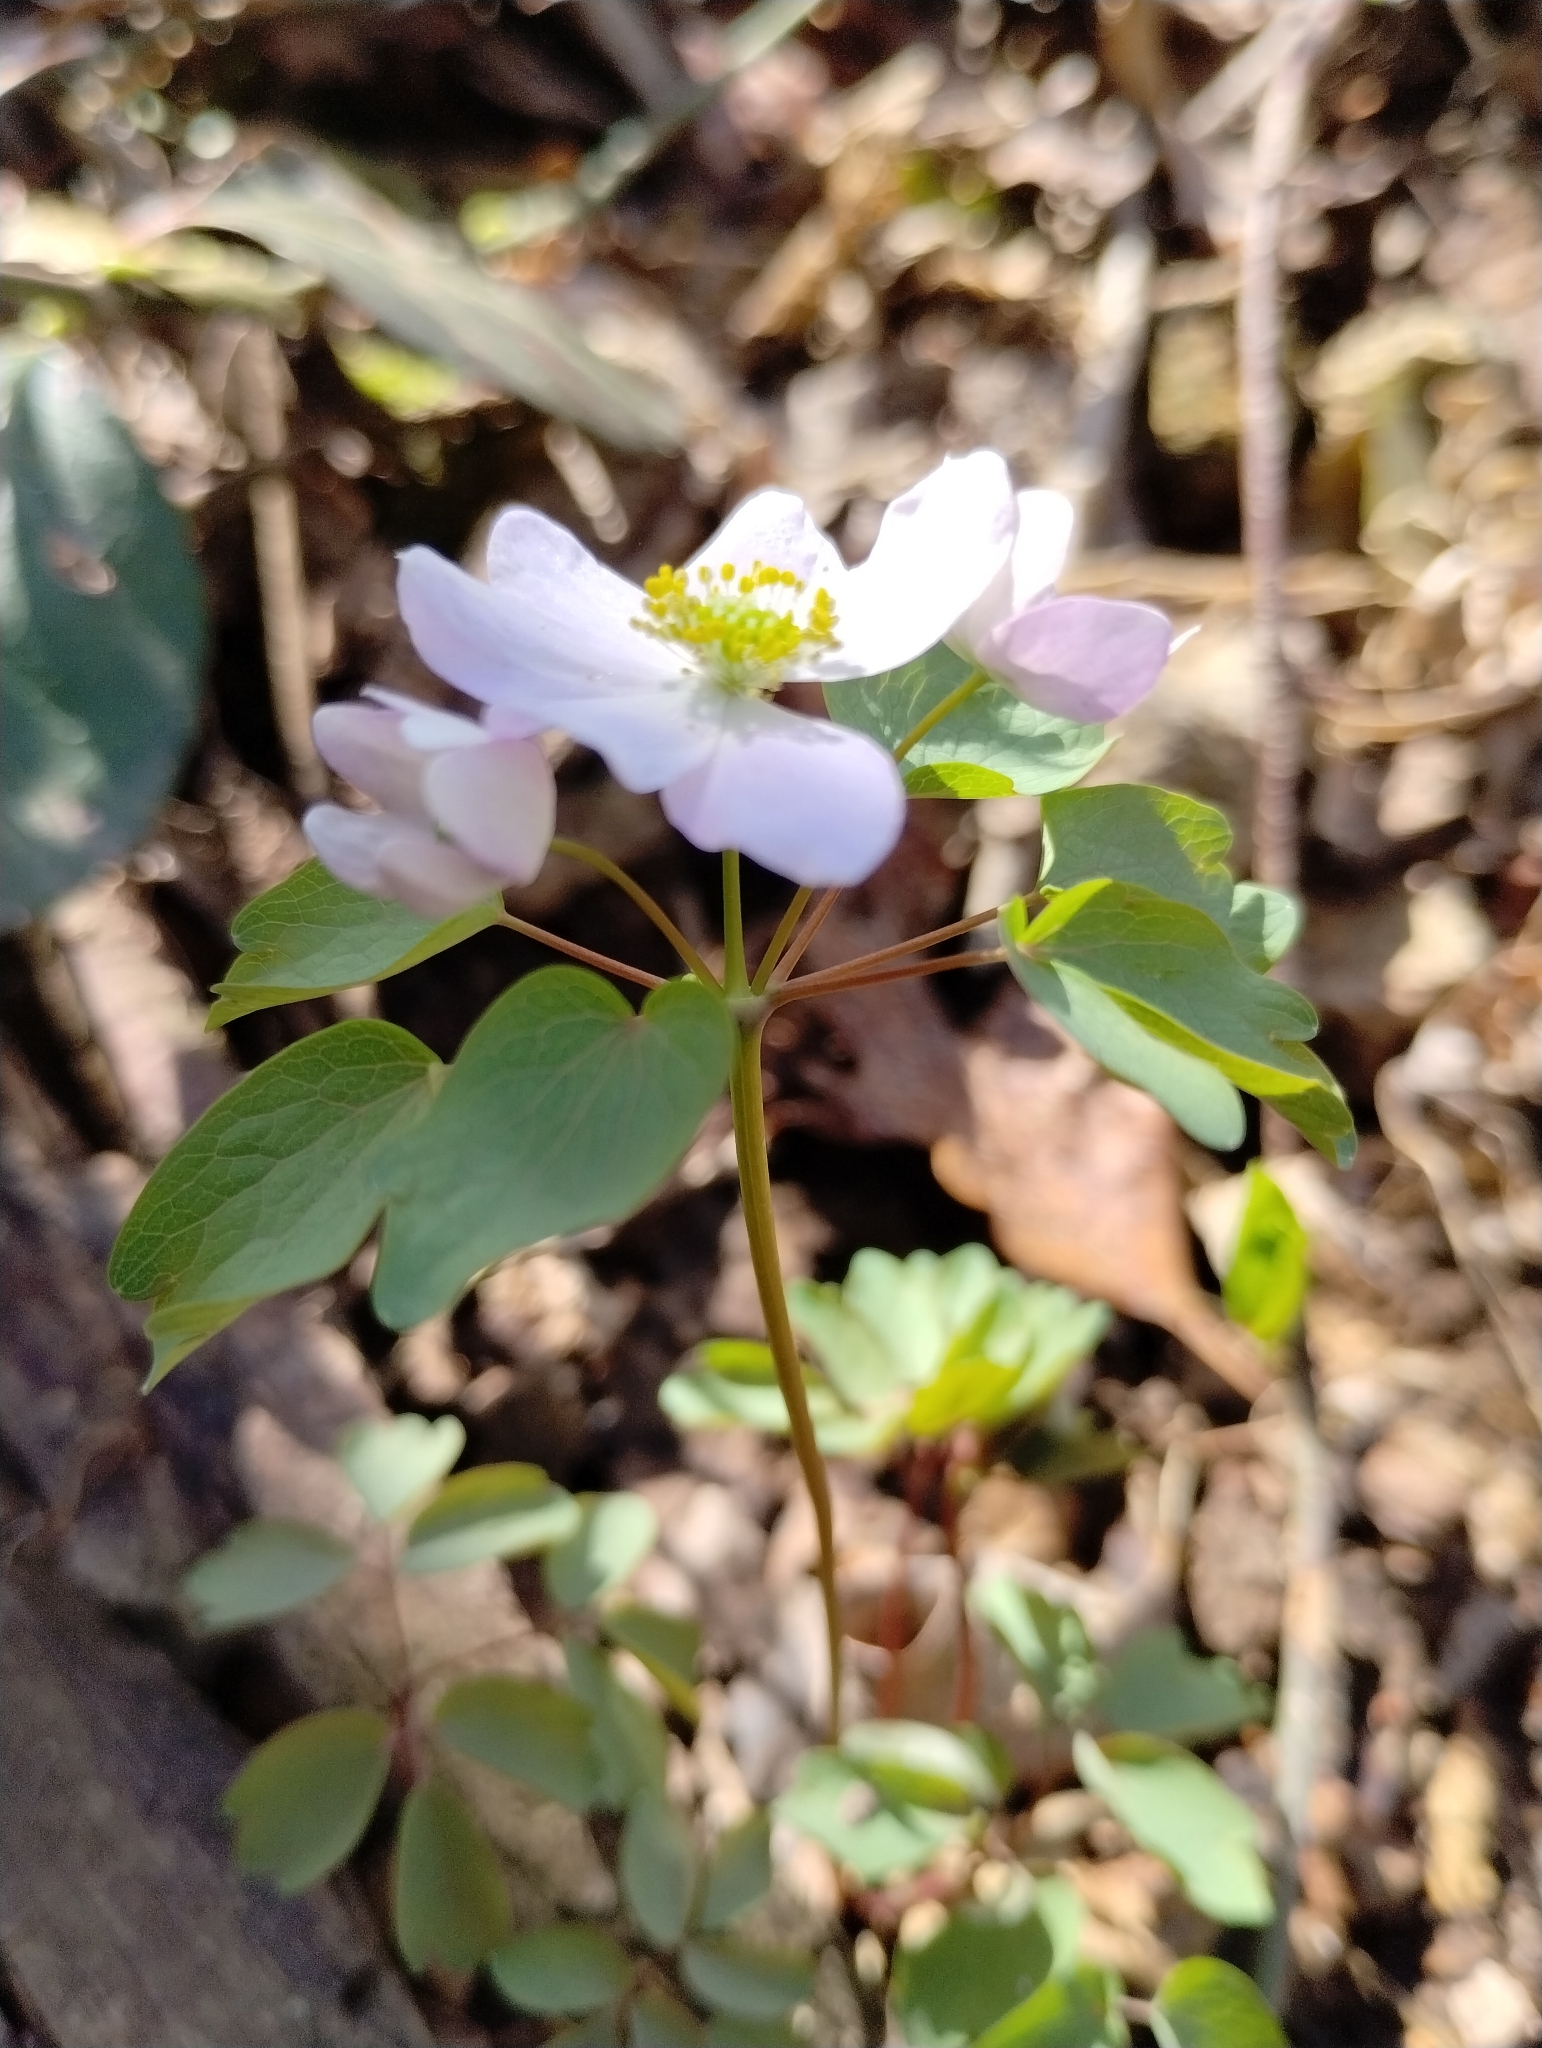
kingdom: Plantae
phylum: Tracheophyta
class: Magnoliopsida
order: Ranunculales
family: Ranunculaceae
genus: Thalictrum
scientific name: Thalictrum thalictroides
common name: Rue-anemone
